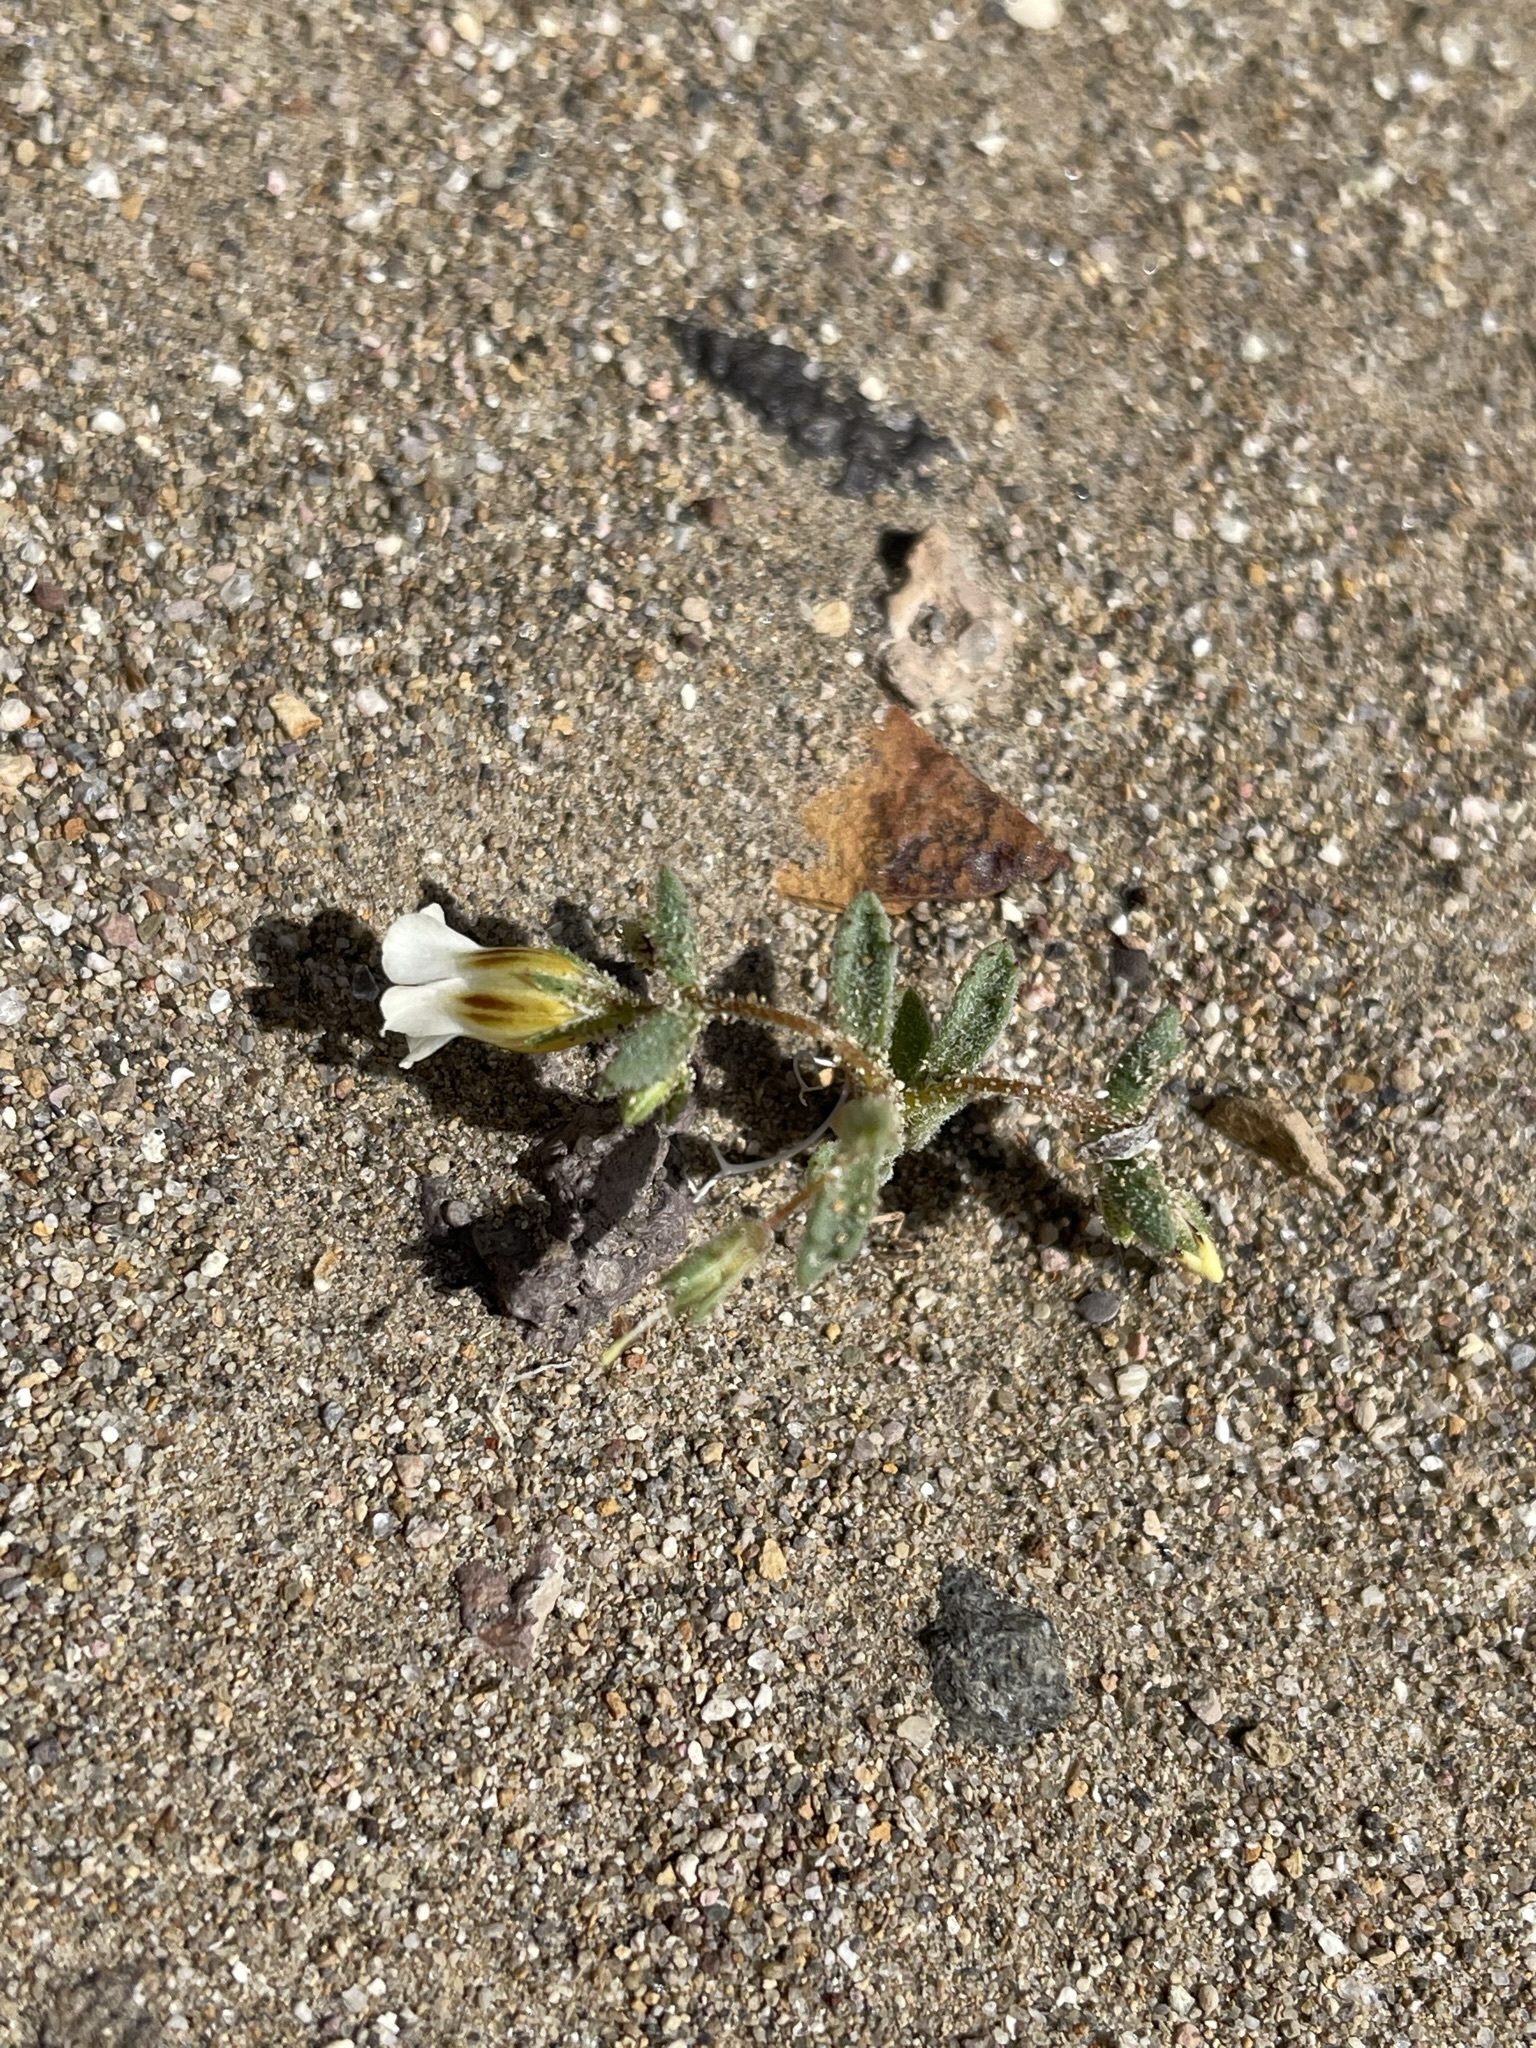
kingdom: Plantae
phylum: Tracheophyta
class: Magnoliopsida
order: Ericales
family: Polemoniaceae
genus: Linanthus
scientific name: Linanthus campanulatus
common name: Bellshape gilia
